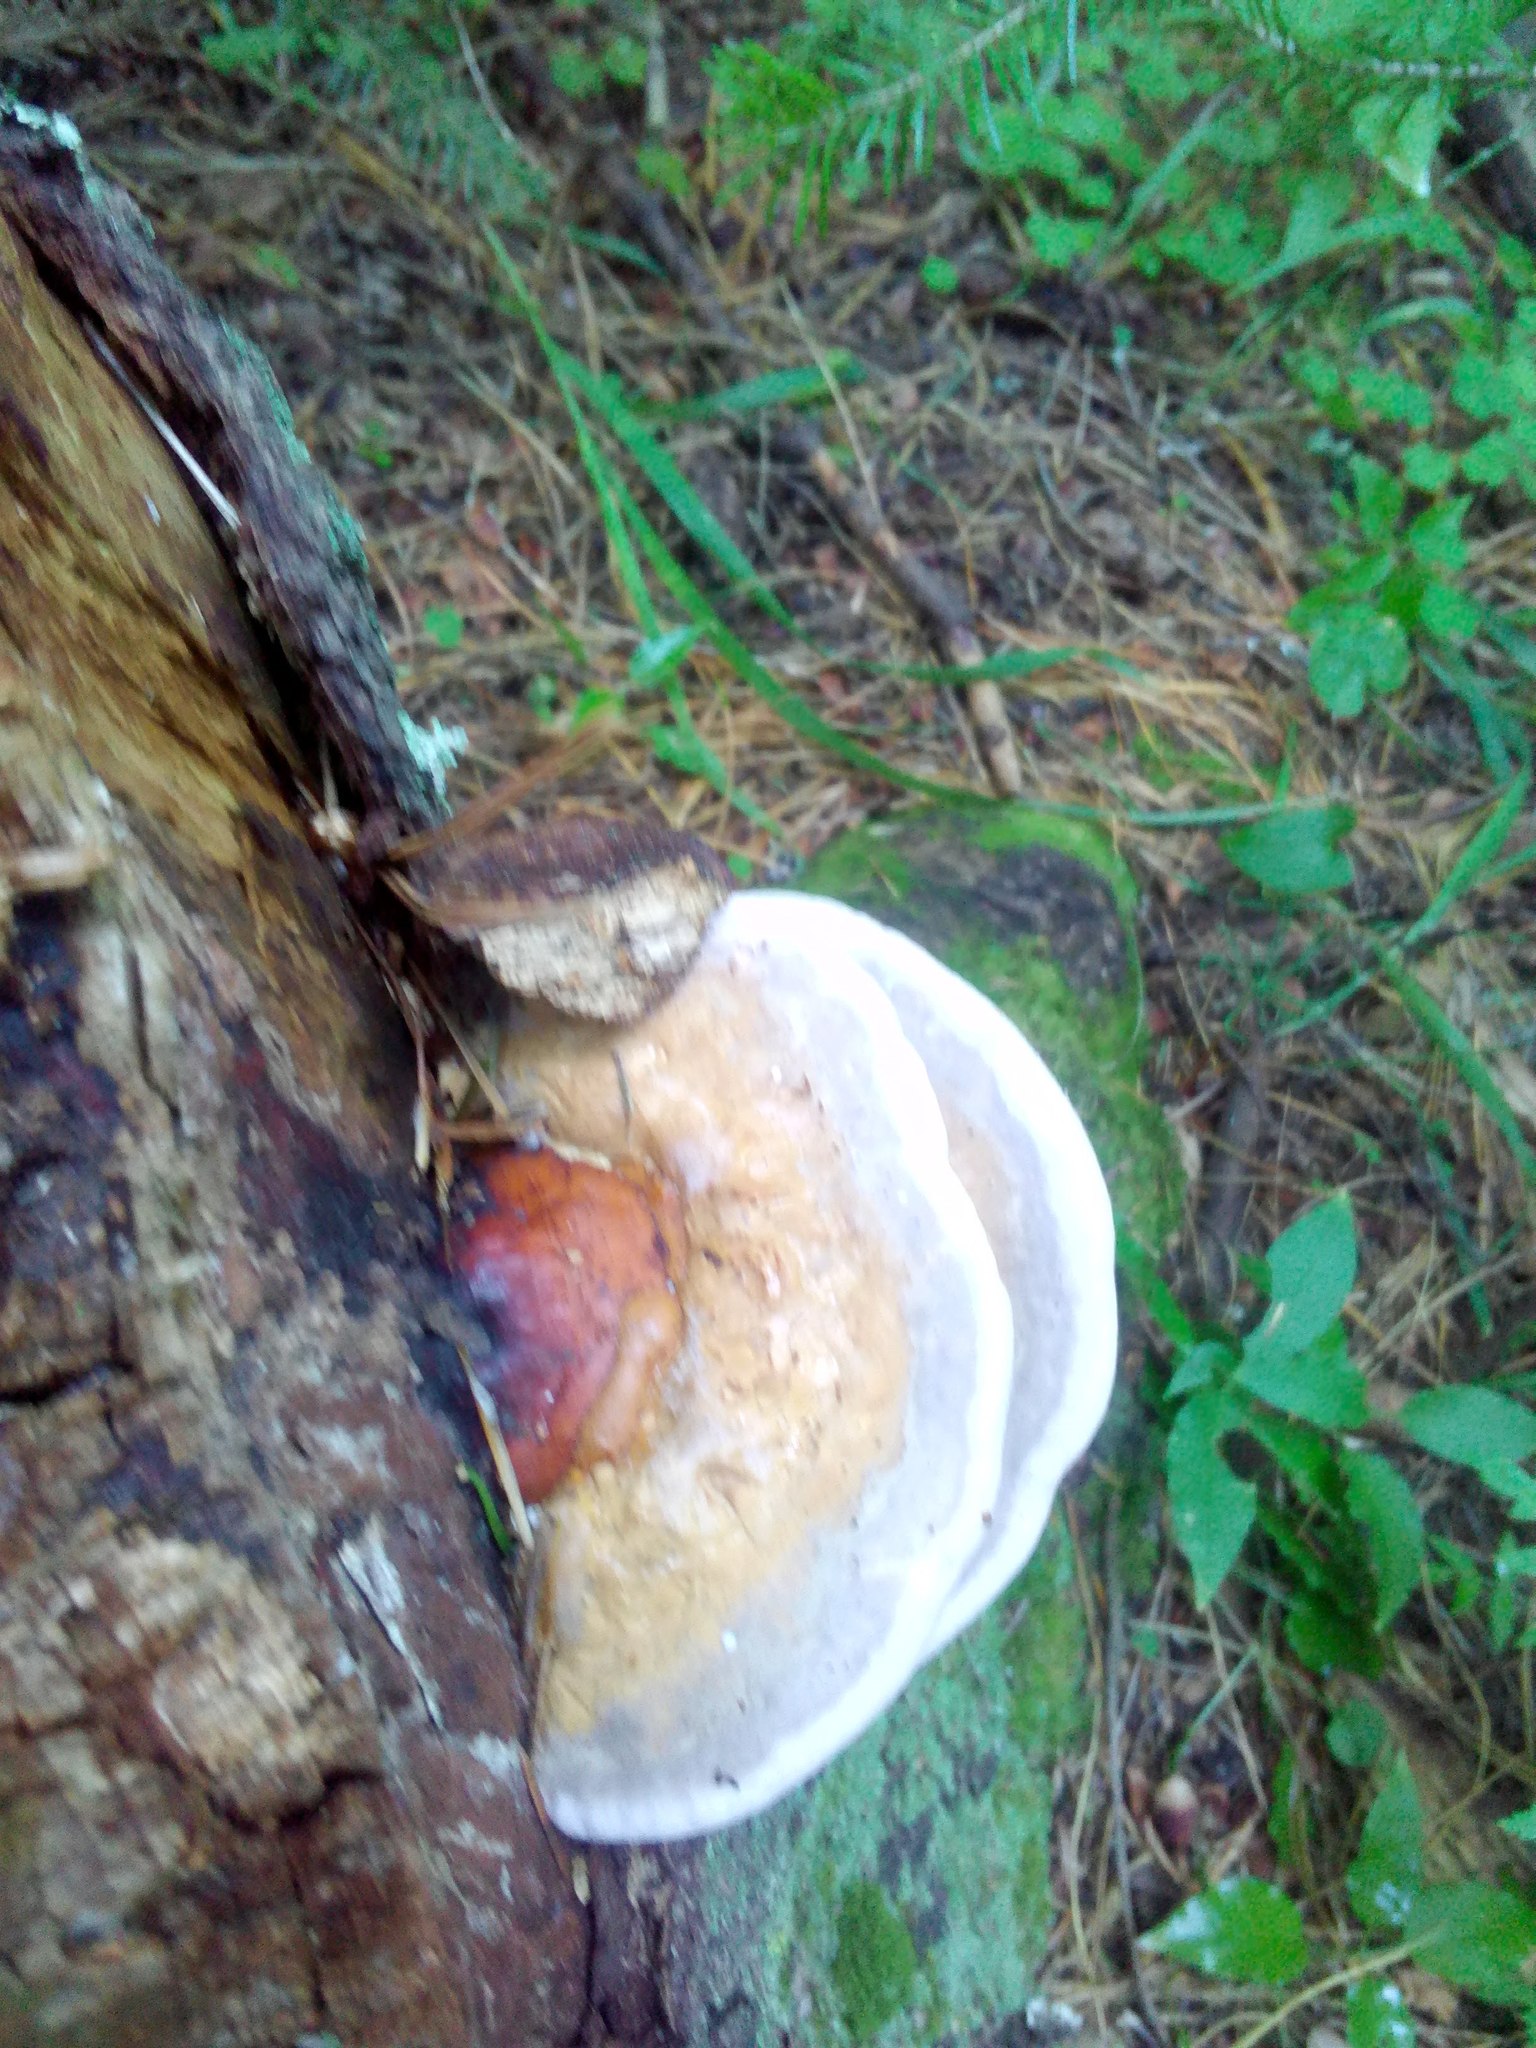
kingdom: Fungi
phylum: Basidiomycota
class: Agaricomycetes
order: Polyporales
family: Fomitopsidaceae
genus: Fomitopsis
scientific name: Fomitopsis pinicola
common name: Red-belted bracket
